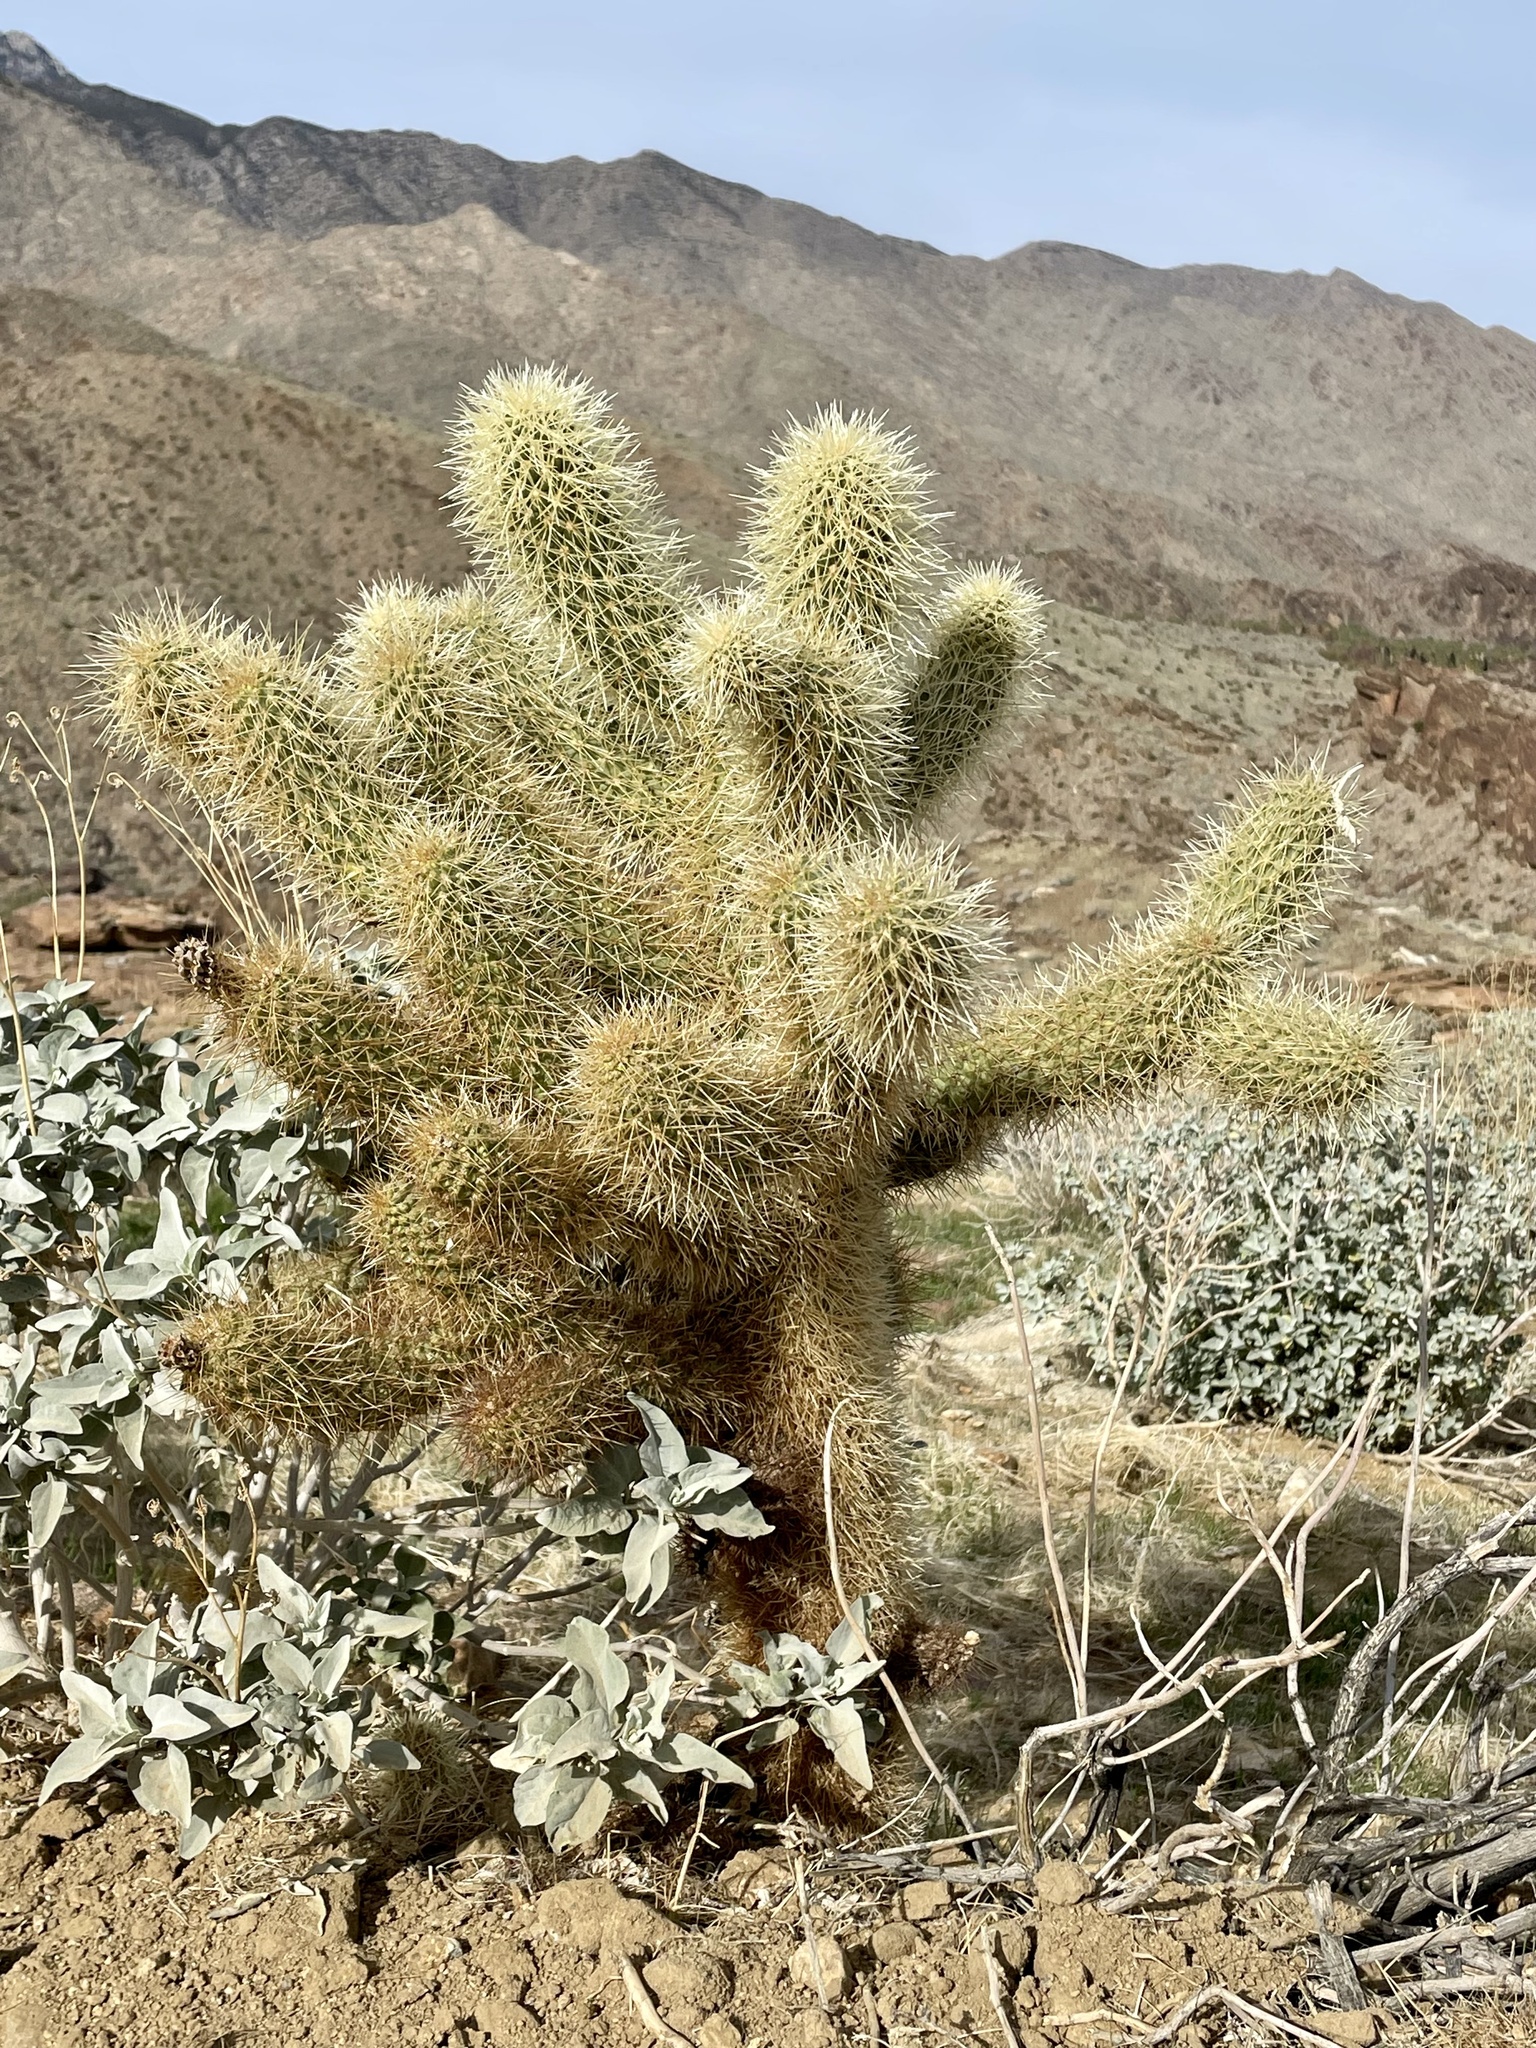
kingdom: Plantae
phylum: Tracheophyta
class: Magnoliopsida
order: Caryophyllales
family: Cactaceae
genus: Cylindropuntia
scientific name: Cylindropuntia fosbergii
